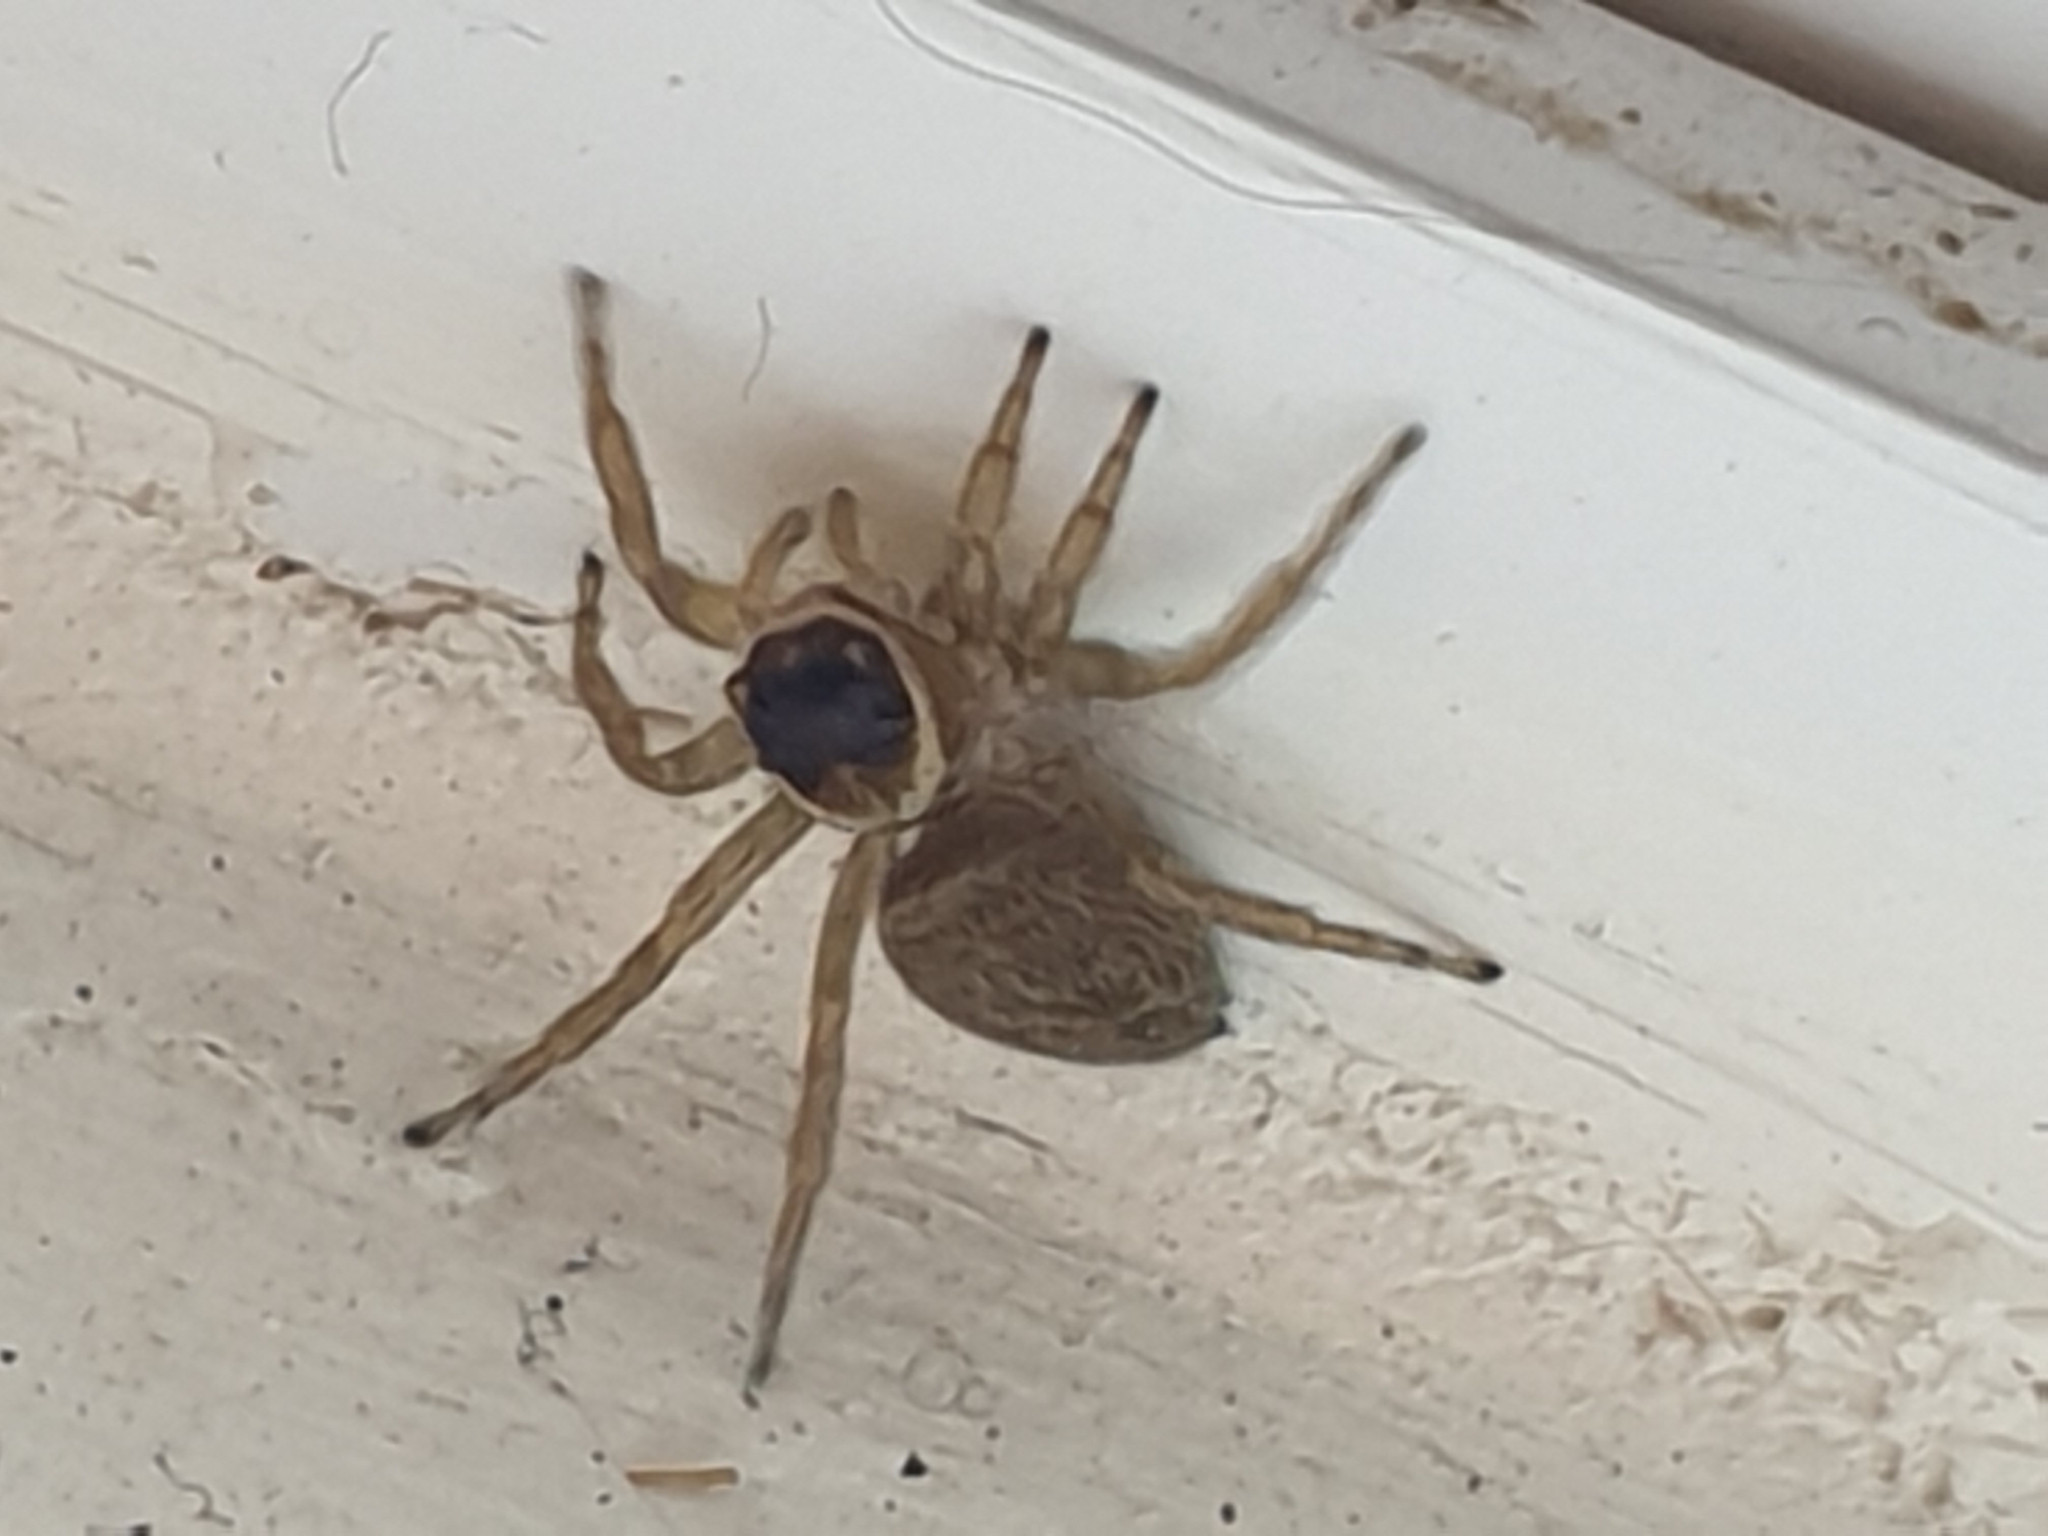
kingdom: Animalia
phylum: Arthropoda
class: Arachnida
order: Araneae
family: Salticidae
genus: Maratus
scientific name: Maratus griseus
